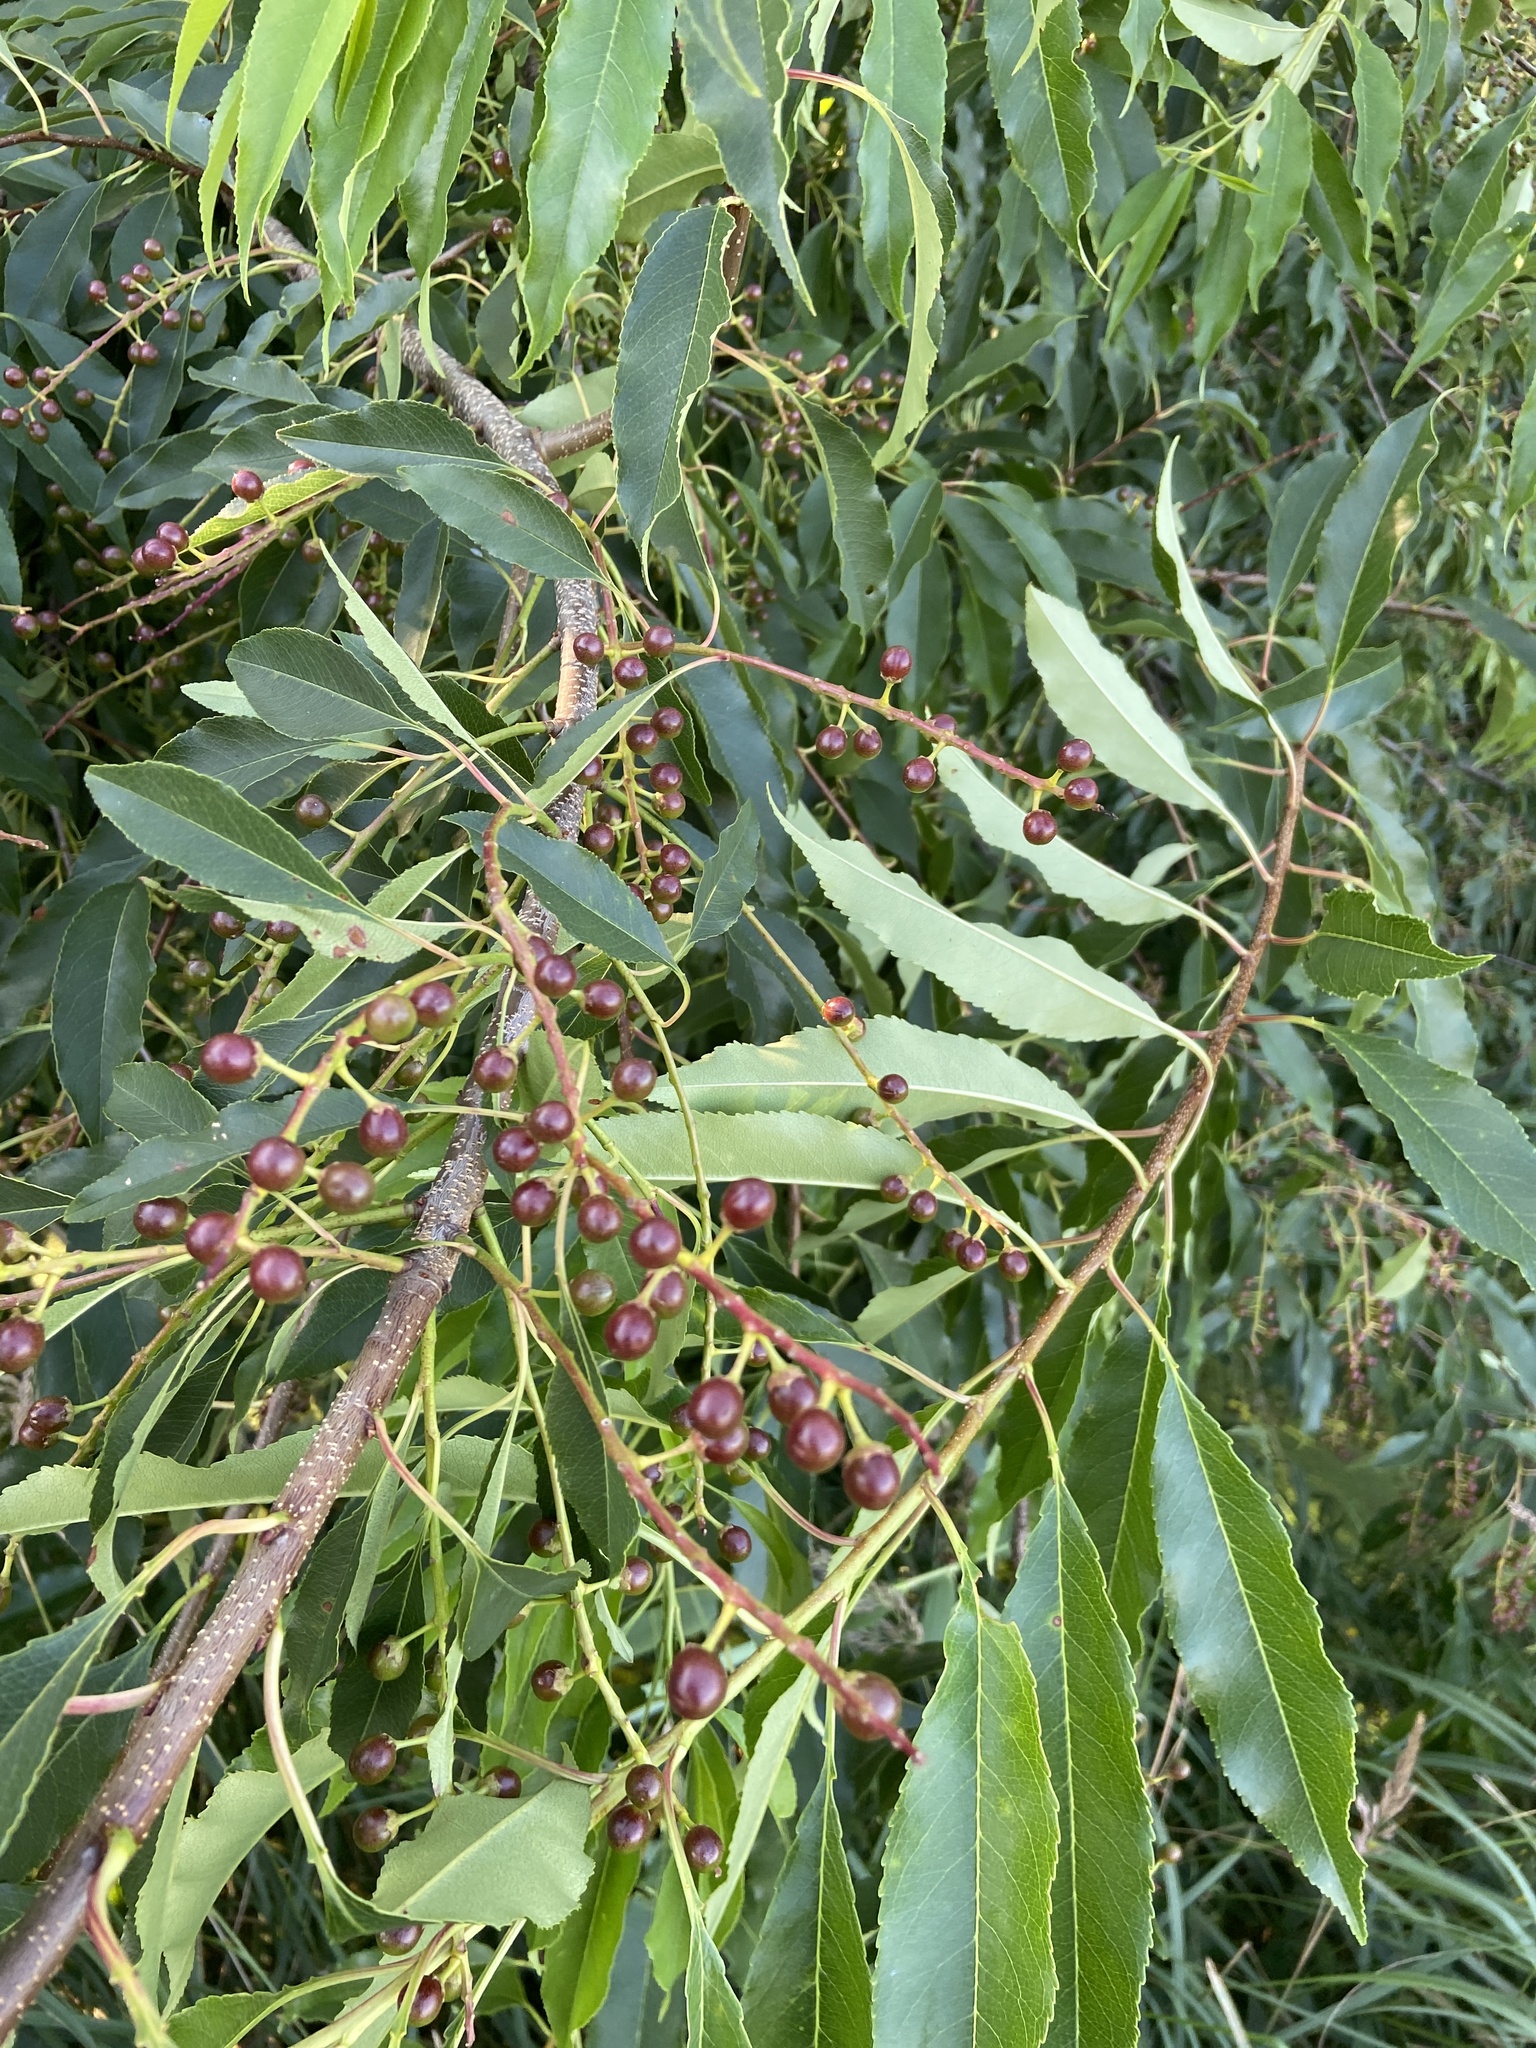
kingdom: Plantae
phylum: Tracheophyta
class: Magnoliopsida
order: Rosales
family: Rosaceae
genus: Prunus
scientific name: Prunus serotina
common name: Black cherry
